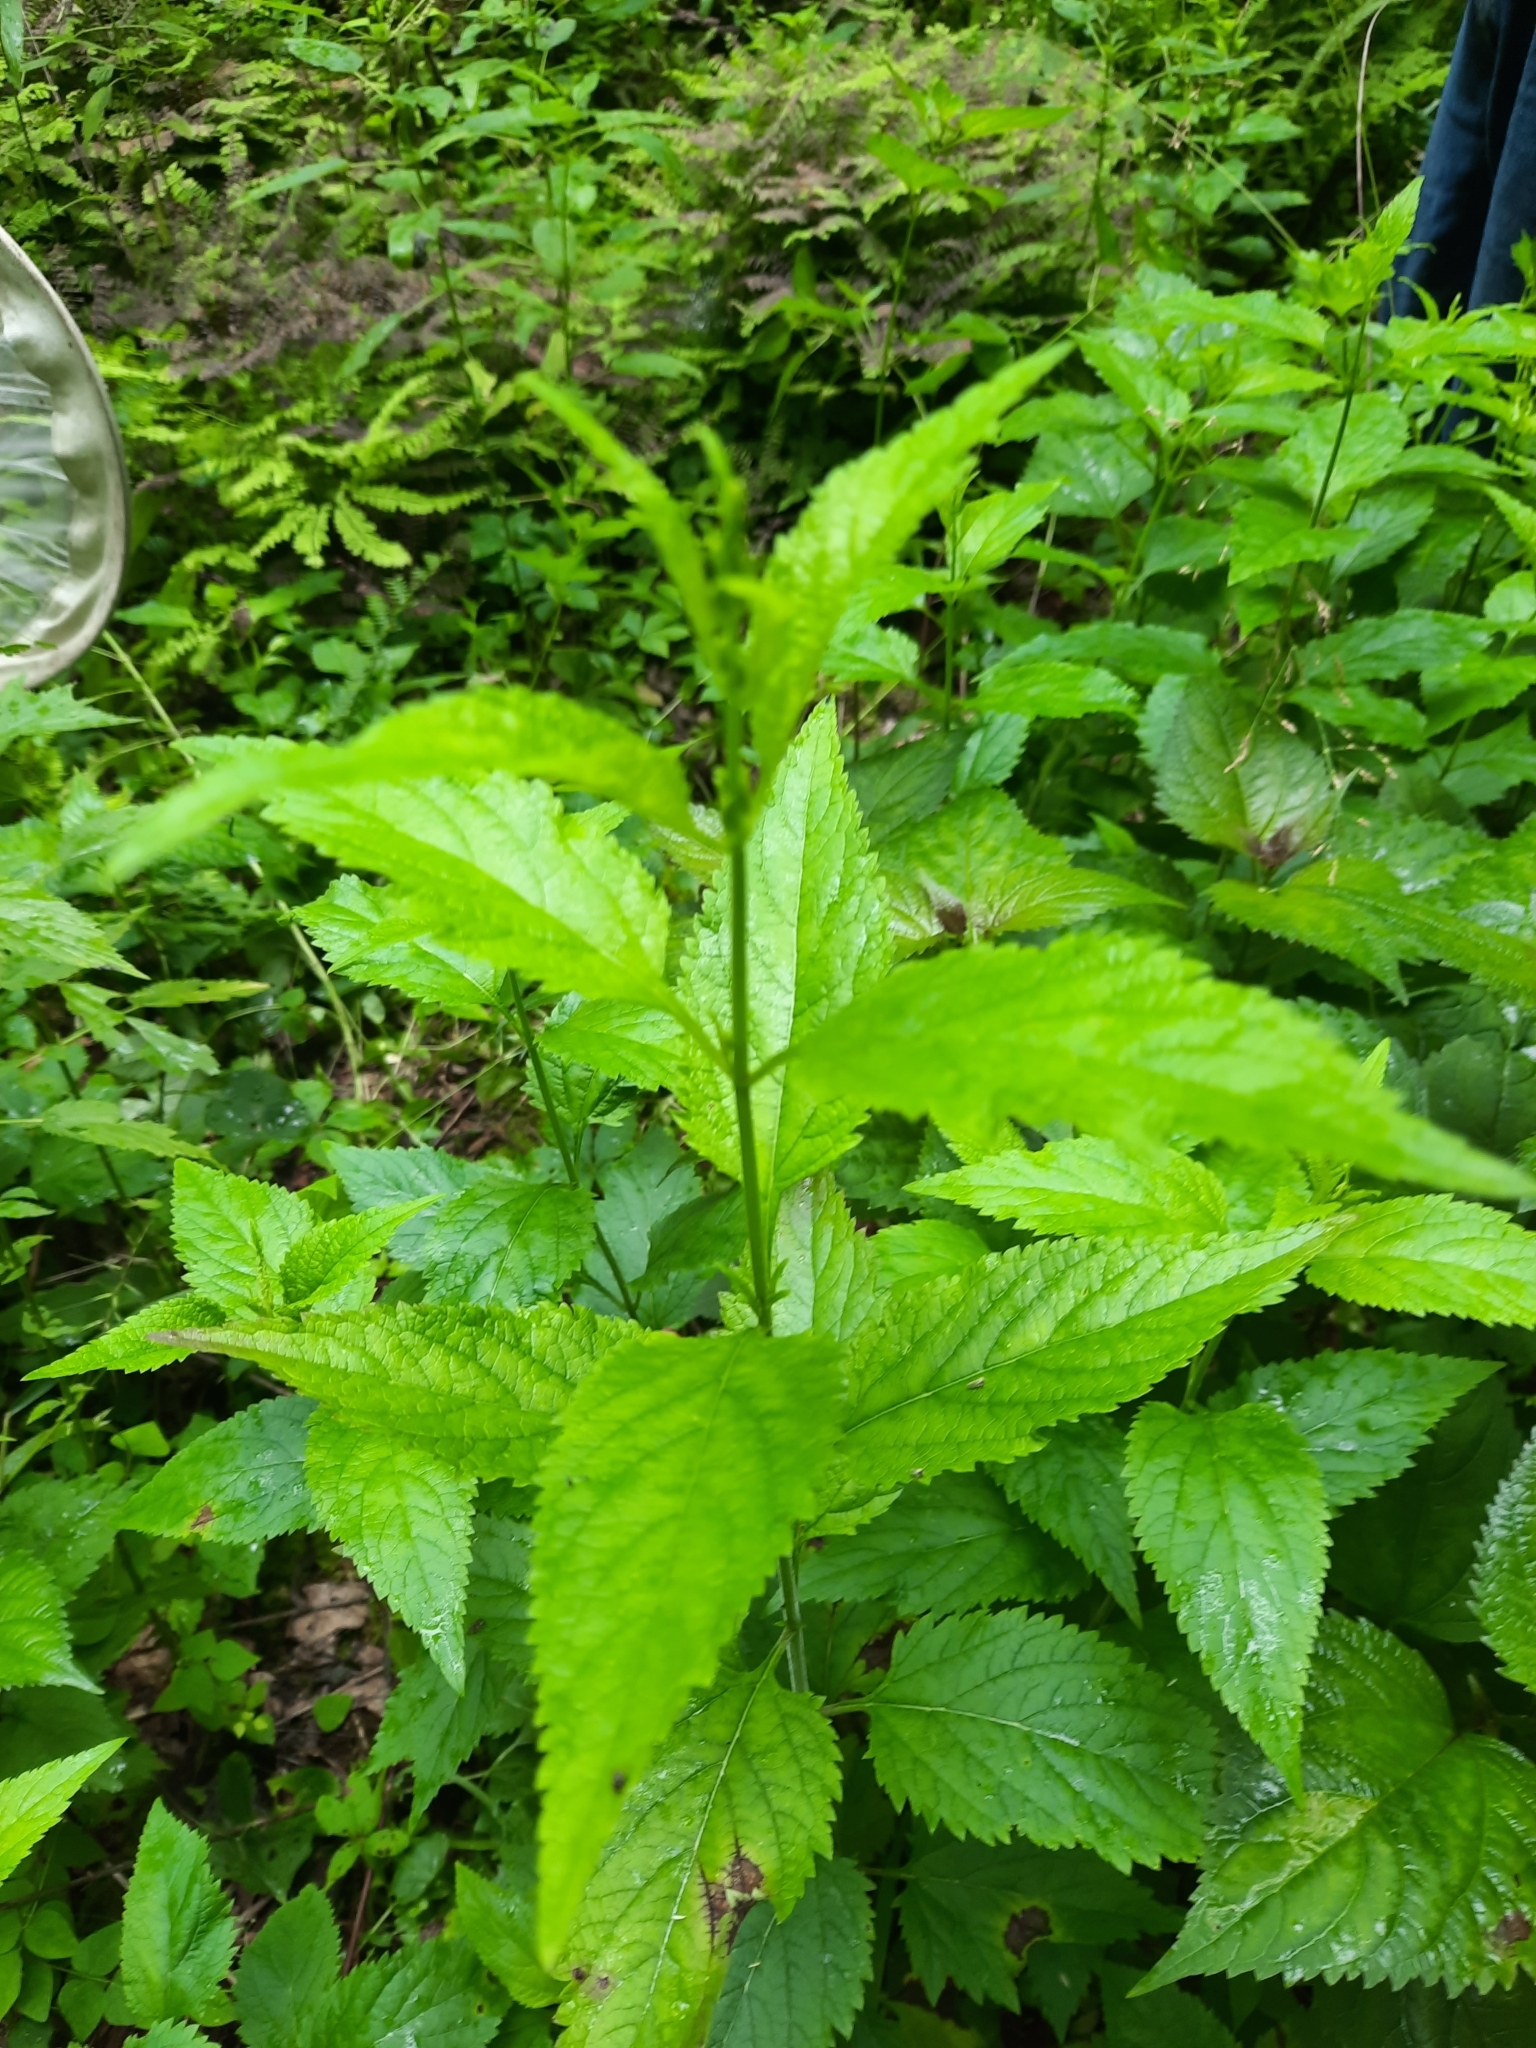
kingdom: Plantae
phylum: Tracheophyta
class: Magnoliopsida
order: Lamiales
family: Verbenaceae
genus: Verbena
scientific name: Verbena urticifolia
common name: Nettle-leaved vervain
